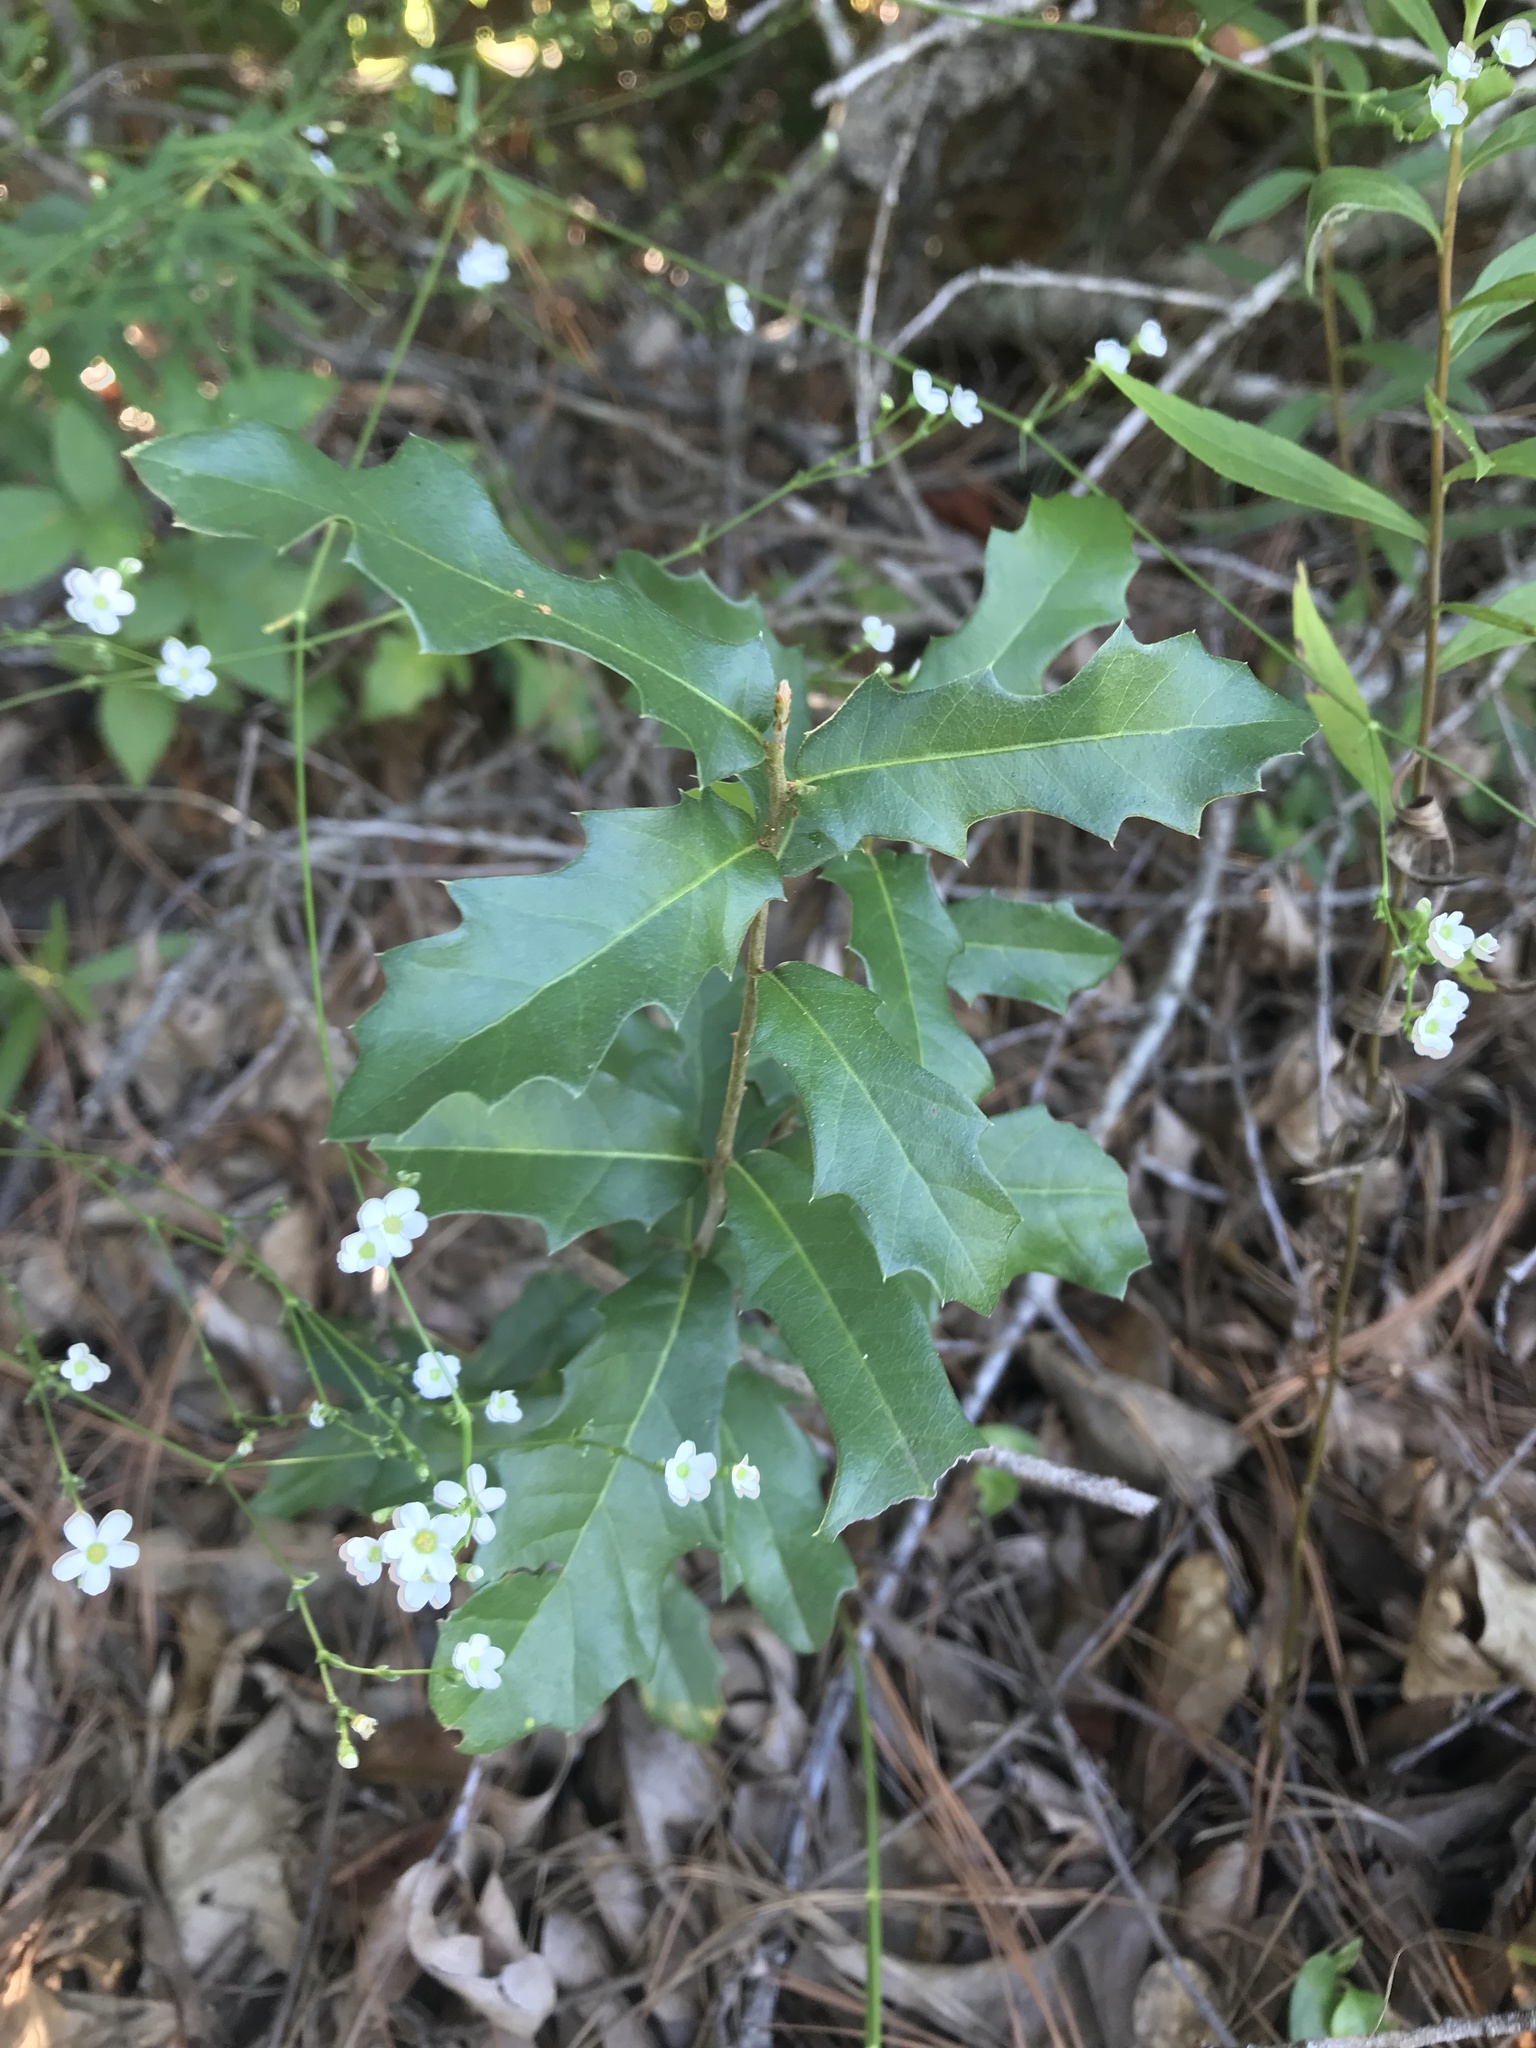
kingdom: Plantae
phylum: Tracheophyta
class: Magnoliopsida
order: Fagales
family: Fagaceae
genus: Quercus
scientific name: Quercus virginiana
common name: Southern live oak
